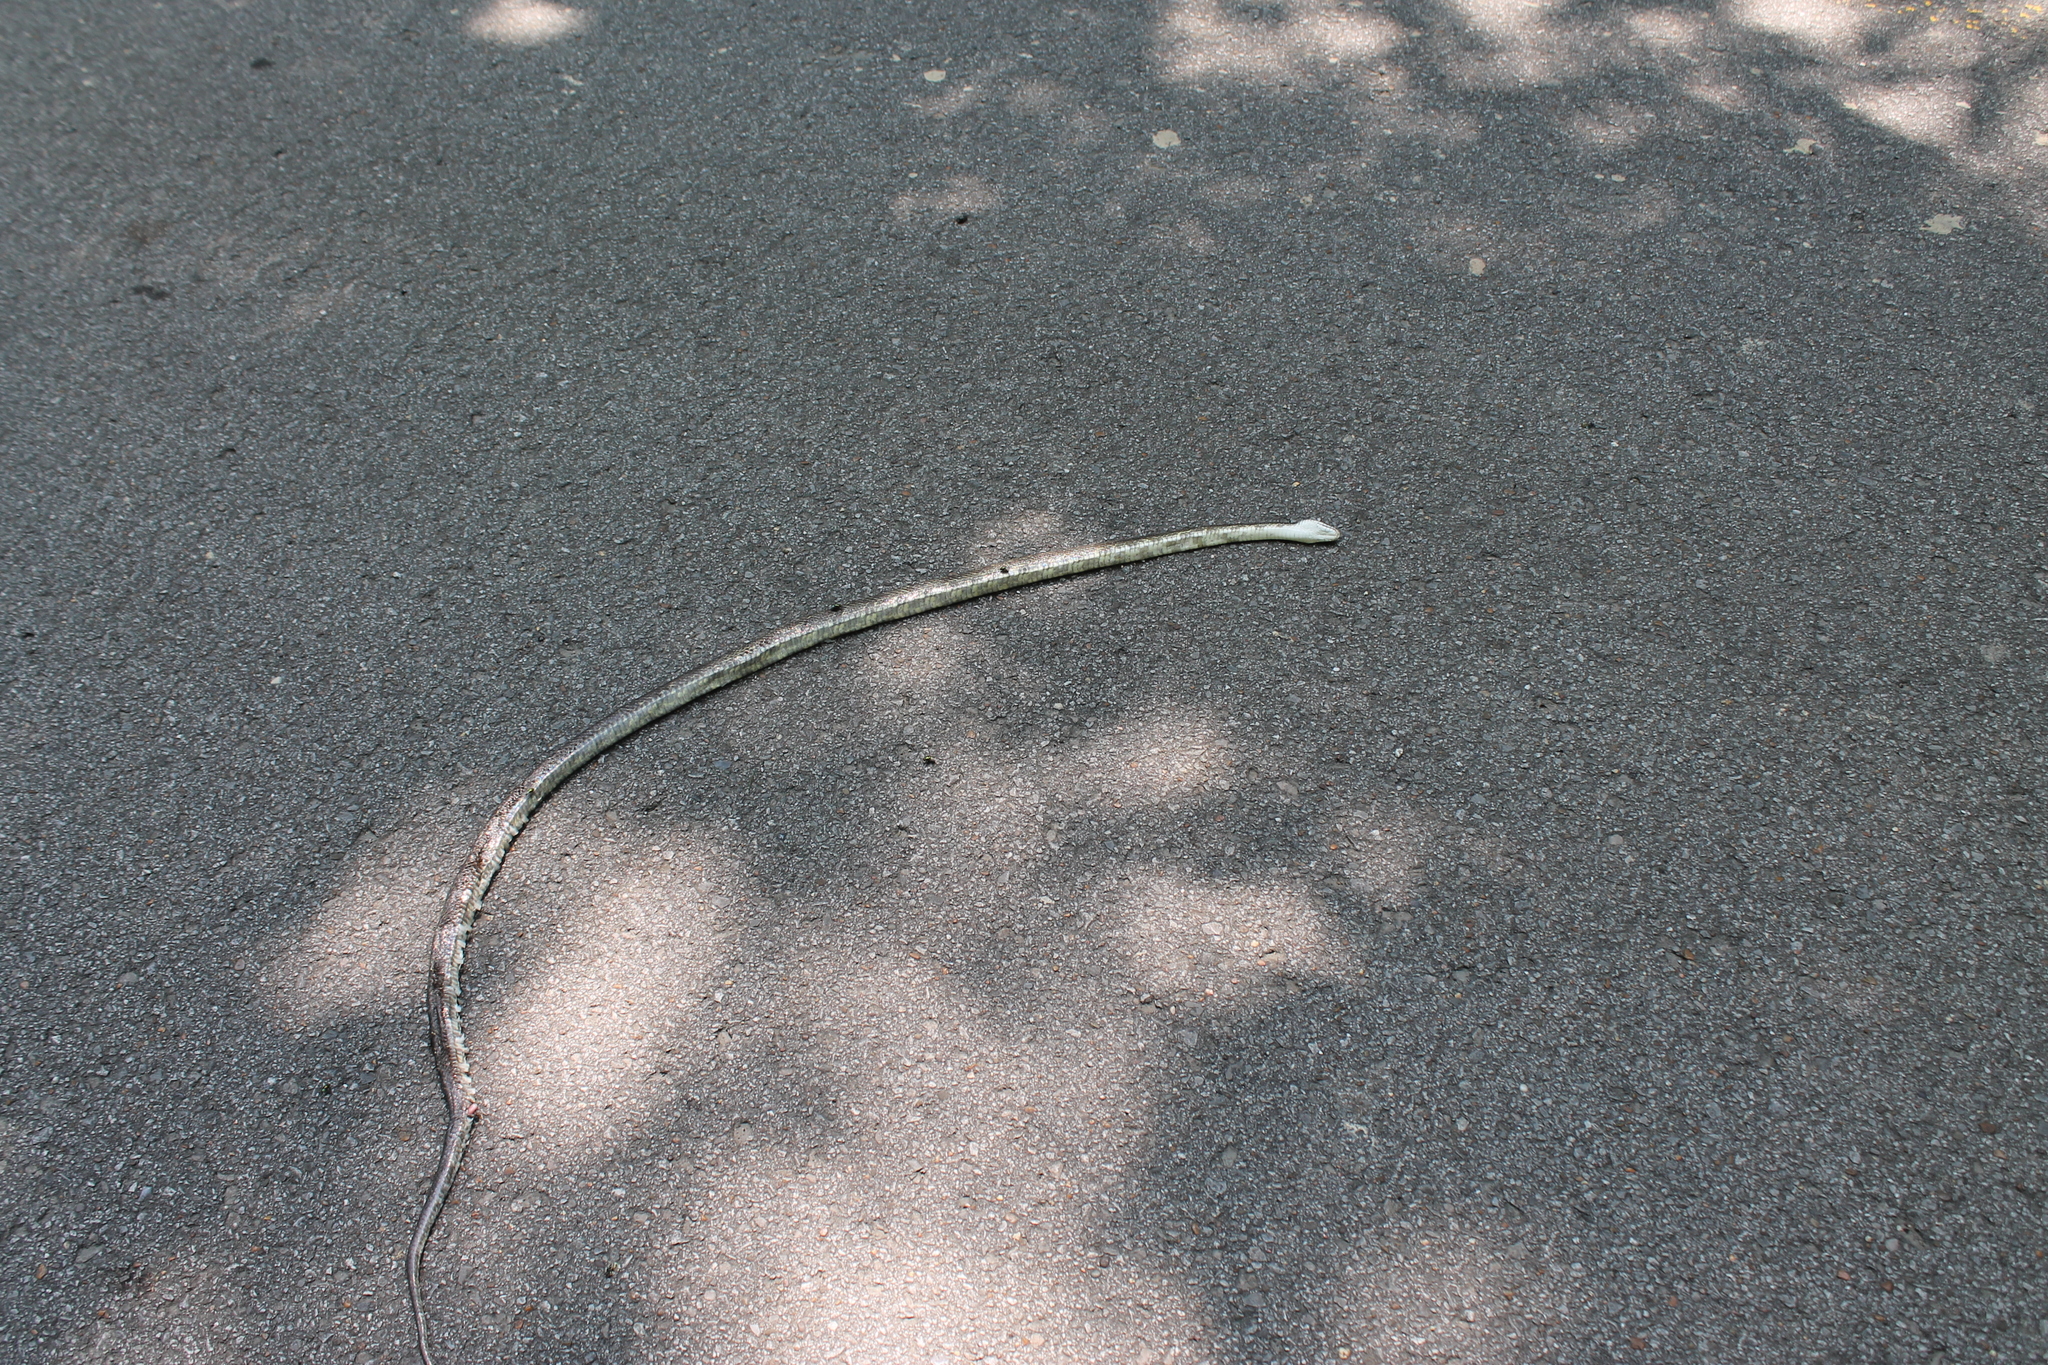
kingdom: Animalia
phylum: Chordata
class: Squamata
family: Colubridae
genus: Pantherophis
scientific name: Pantherophis spiloides
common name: Gray rat snake
